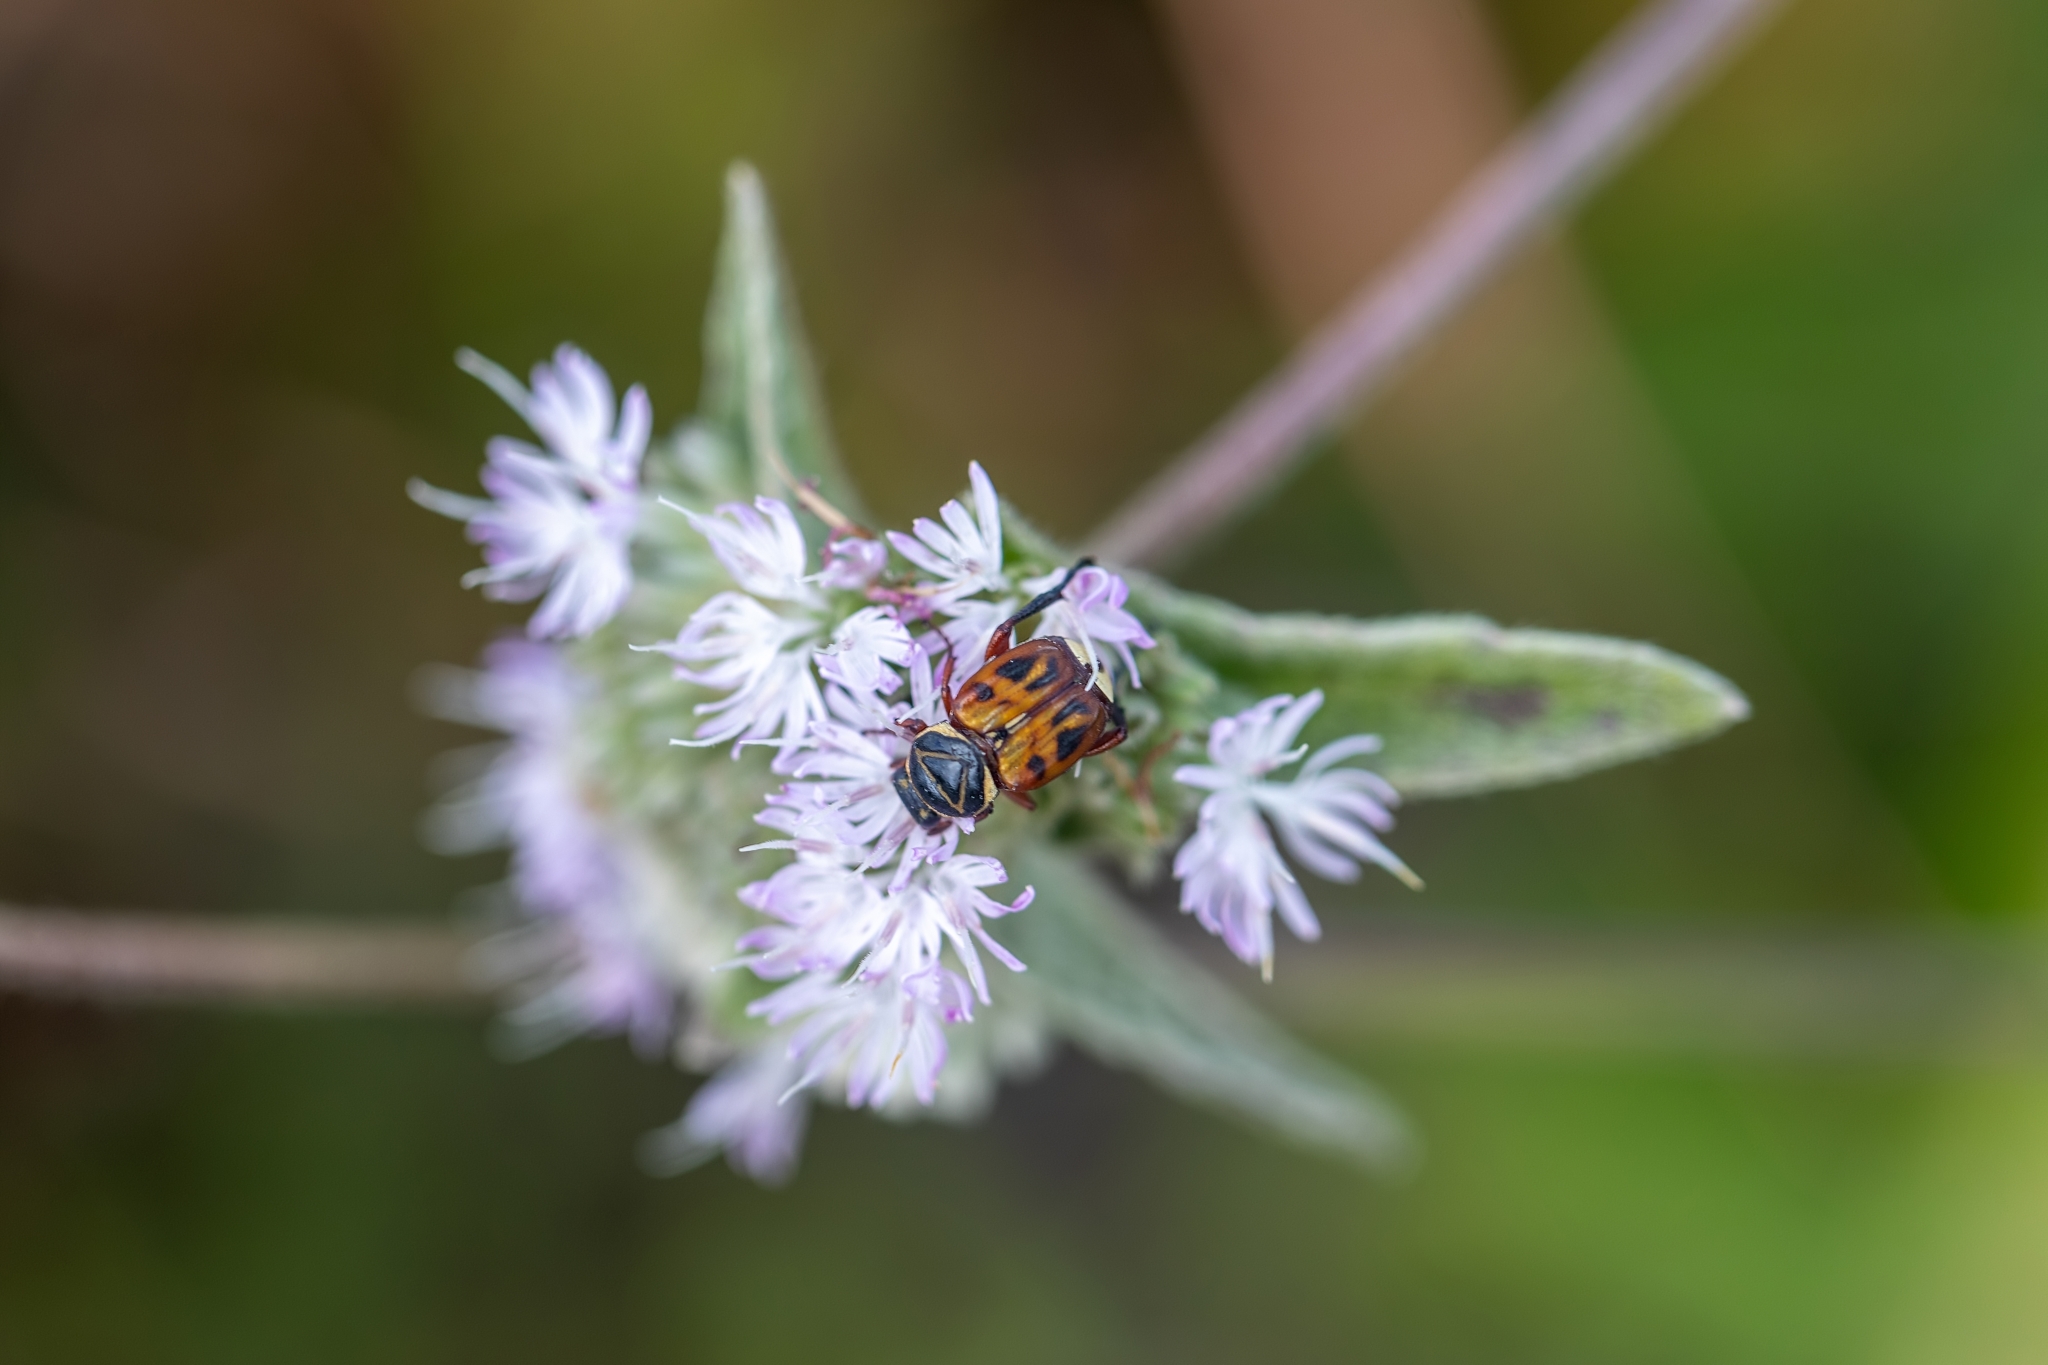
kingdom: Animalia
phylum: Arthropoda
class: Insecta
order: Coleoptera
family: Scarabaeidae
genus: Trigonopeltastes
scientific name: Trigonopeltastes delta
